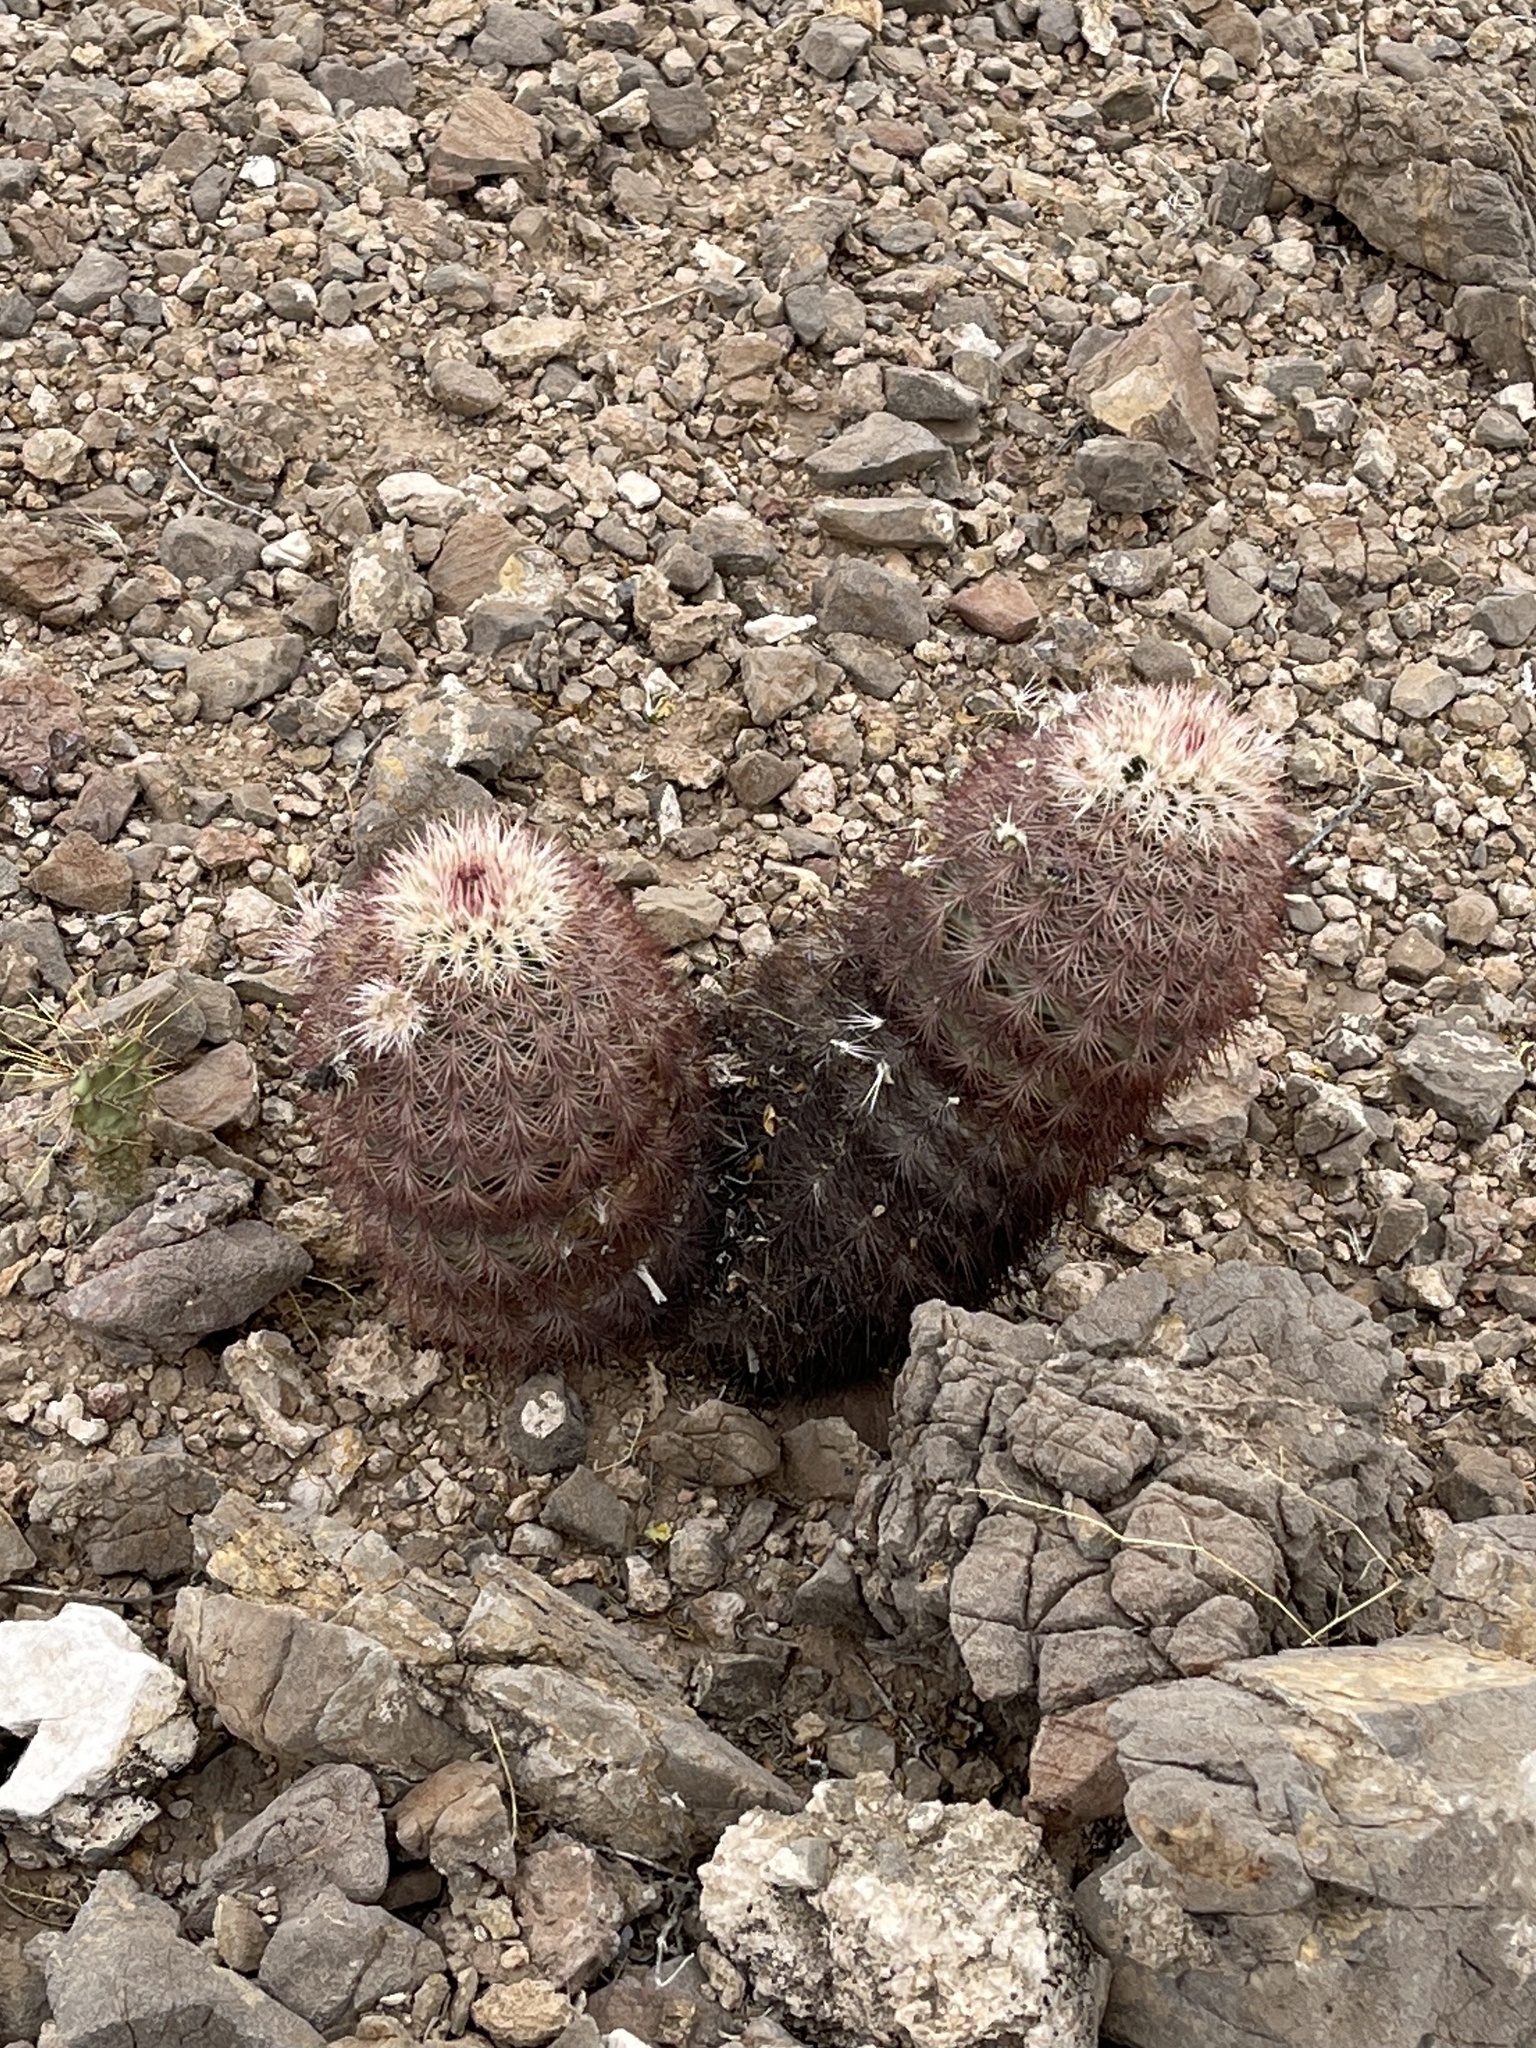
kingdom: Plantae
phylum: Tracheophyta
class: Magnoliopsida
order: Caryophyllales
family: Cactaceae
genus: Echinocereus
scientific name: Echinocereus dasyacanthus
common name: Spiny hedgehog cactus
